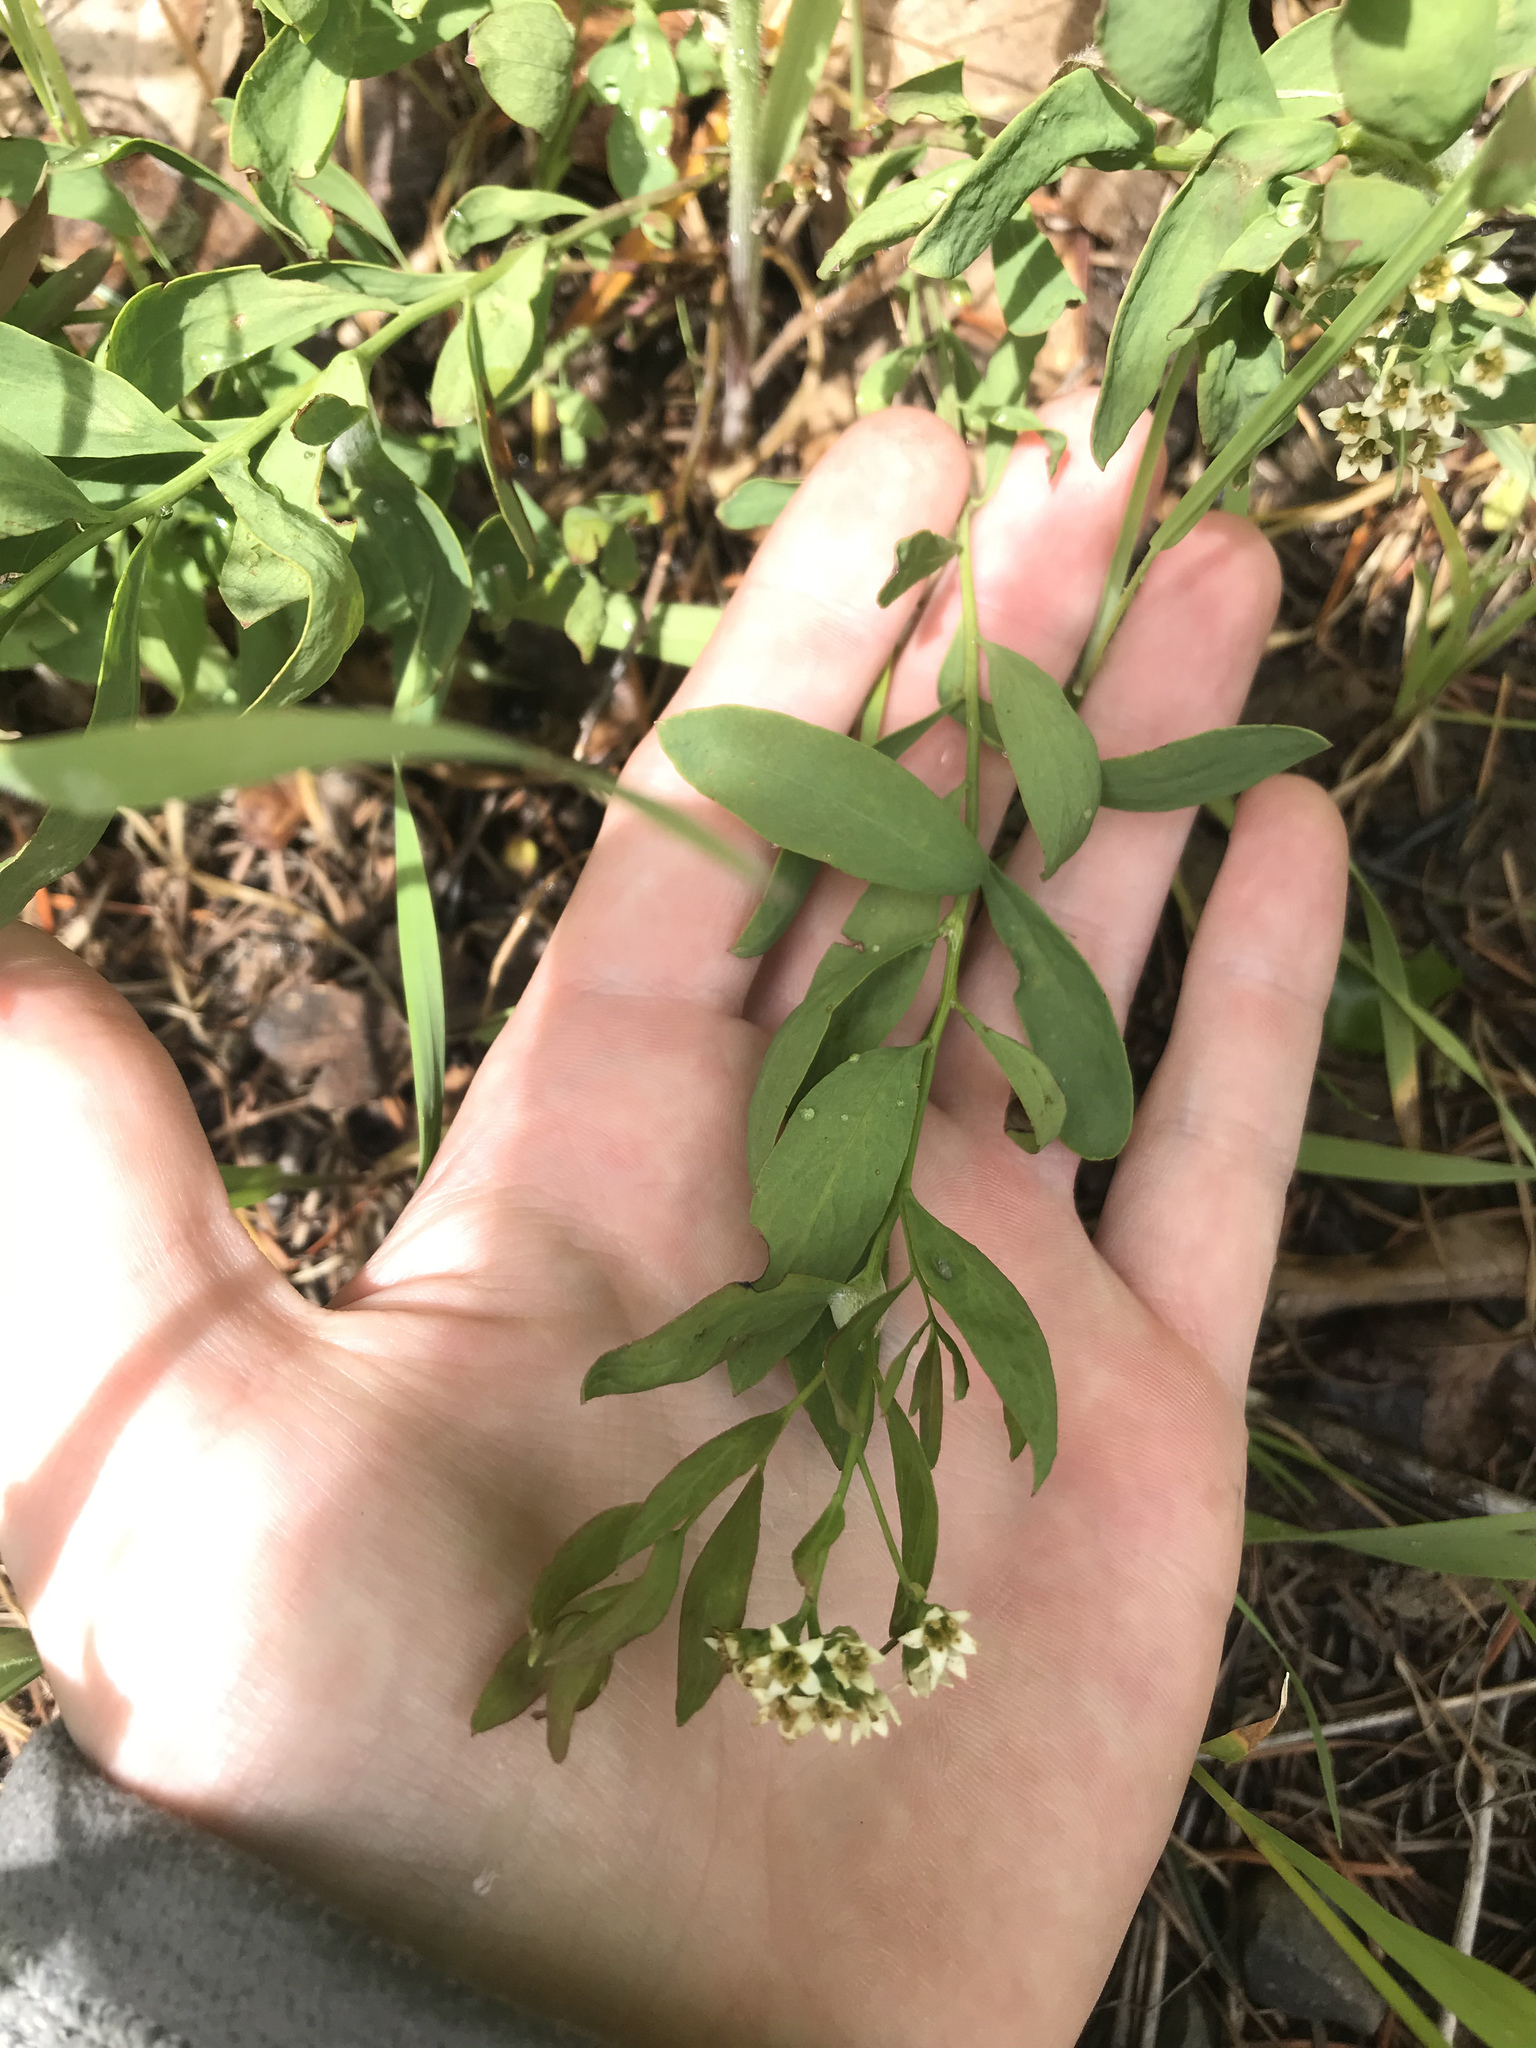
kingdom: Plantae
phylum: Tracheophyta
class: Magnoliopsida
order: Santalales
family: Comandraceae
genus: Comandra
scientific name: Comandra umbellata
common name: Bastard toadflax
